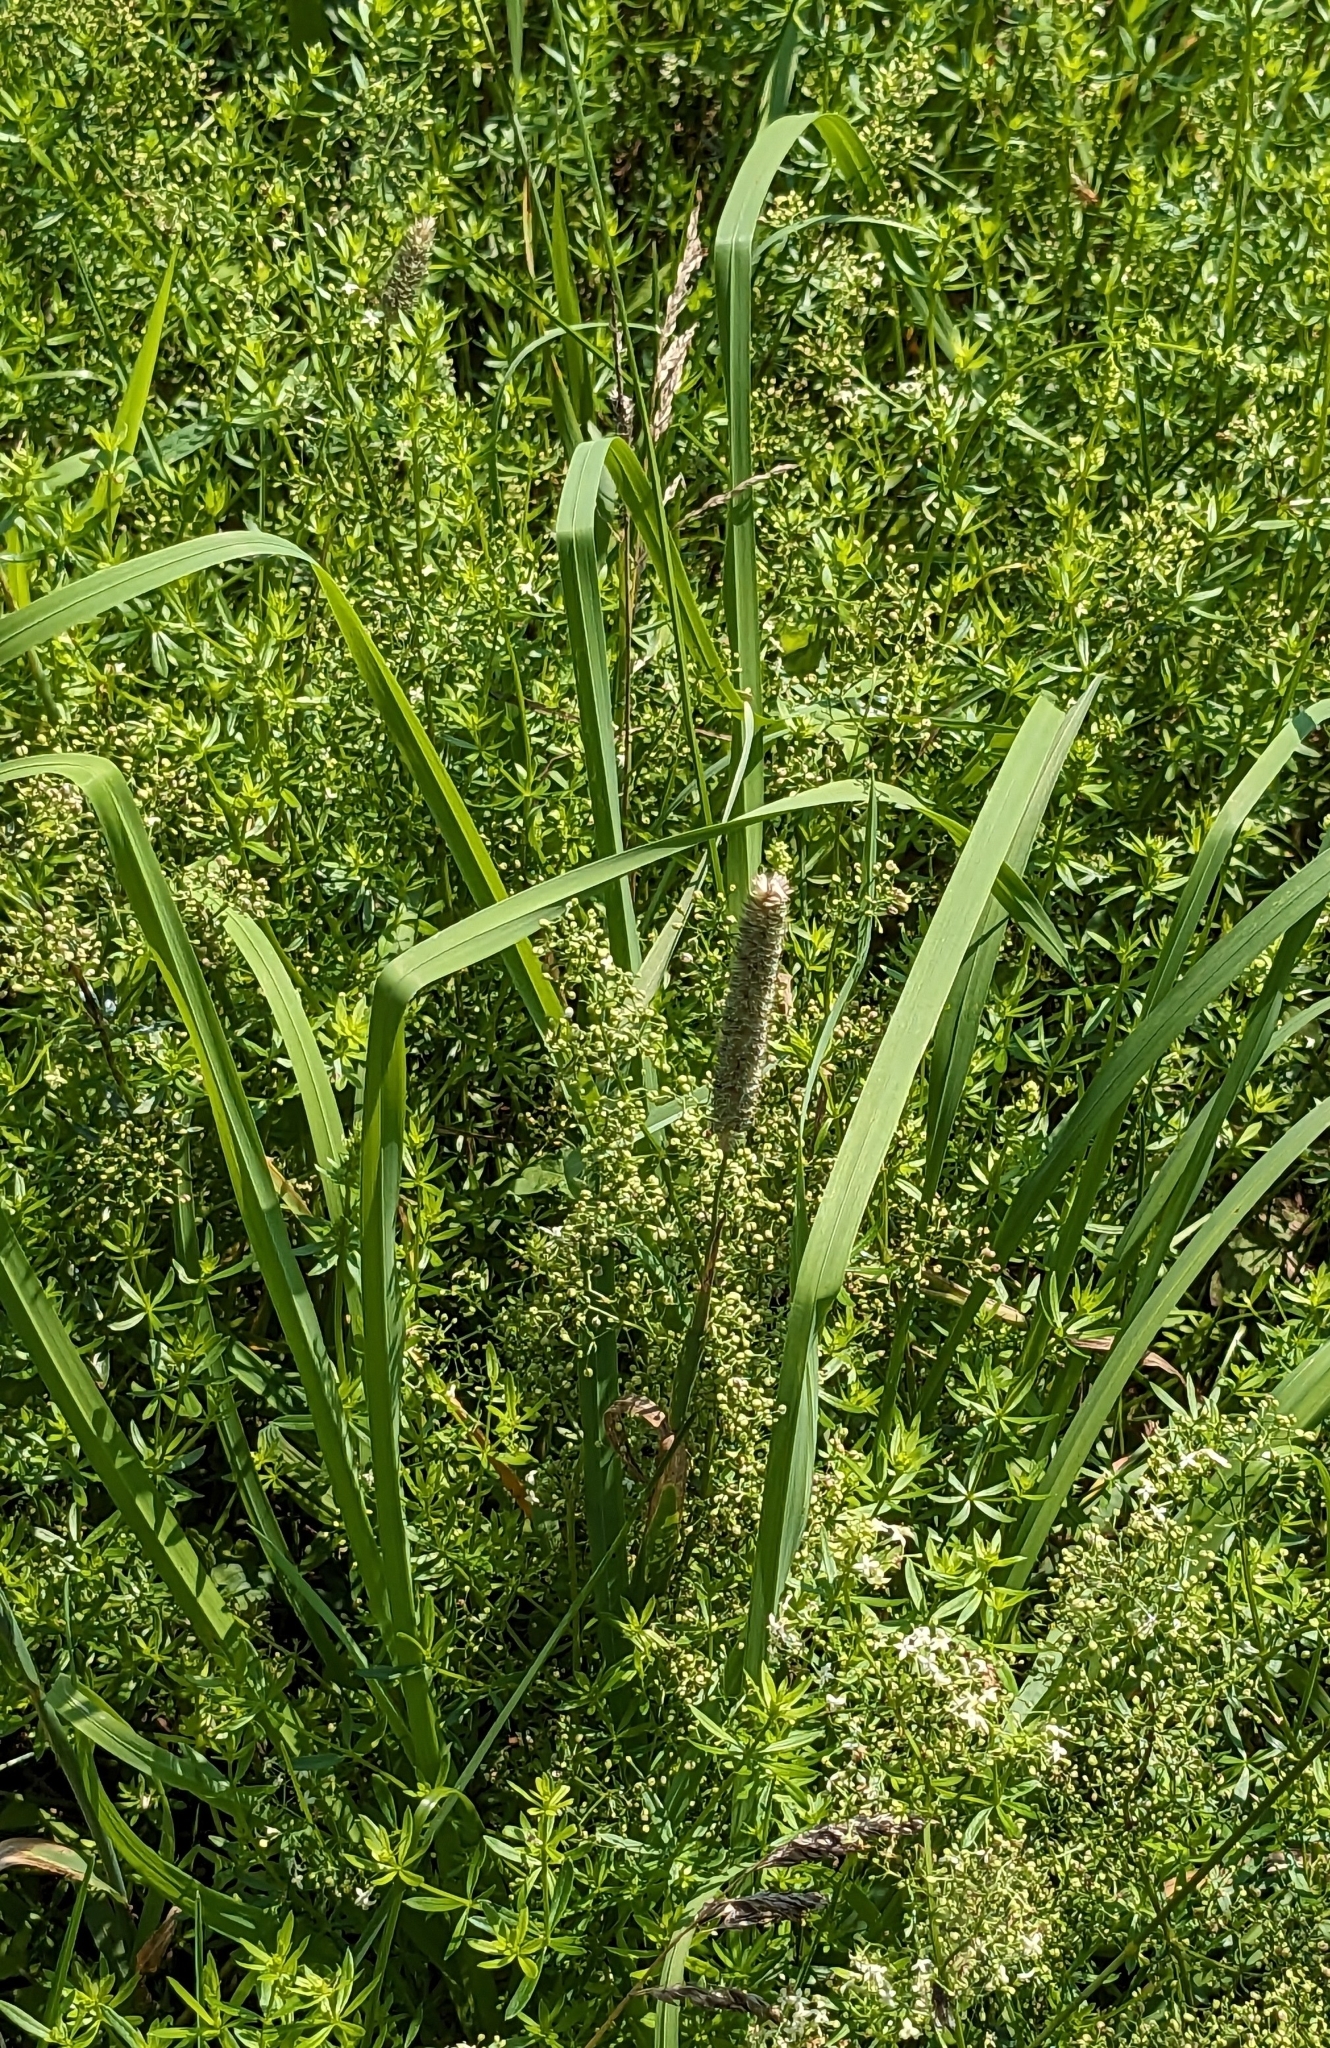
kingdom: Plantae
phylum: Tracheophyta
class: Liliopsida
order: Poales
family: Poaceae
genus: Phleum
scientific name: Phleum pratense
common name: Timothy grass
